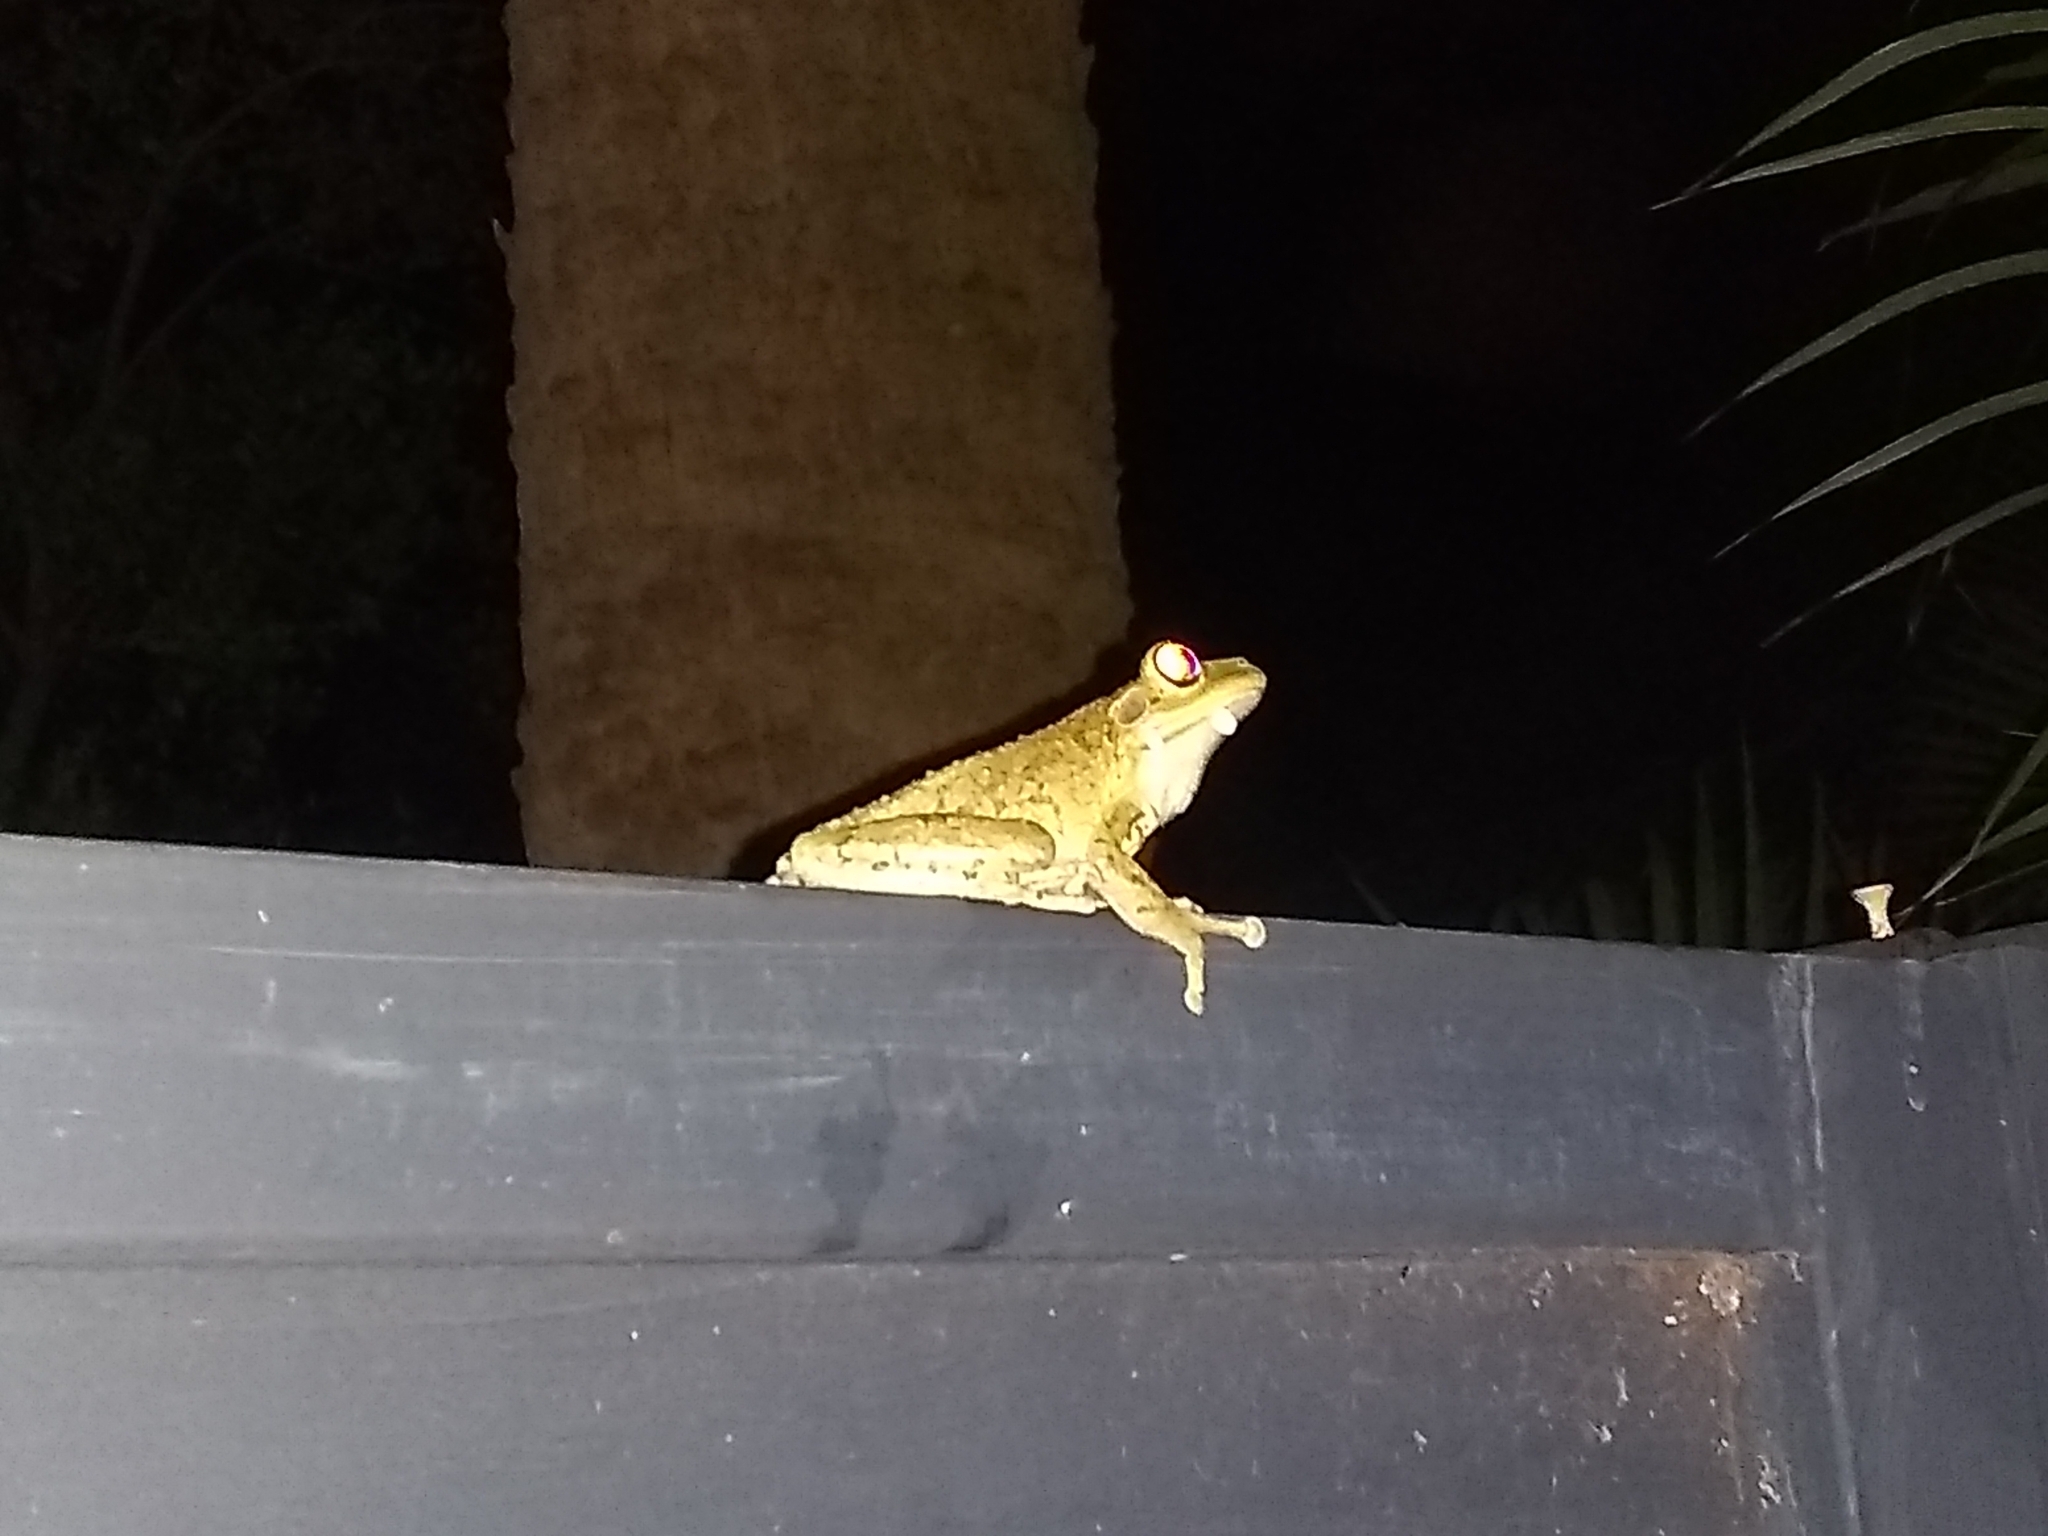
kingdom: Animalia
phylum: Chordata
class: Amphibia
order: Anura
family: Hylidae
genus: Osteopilus
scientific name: Osteopilus septentrionalis
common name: Cuban treefrog
